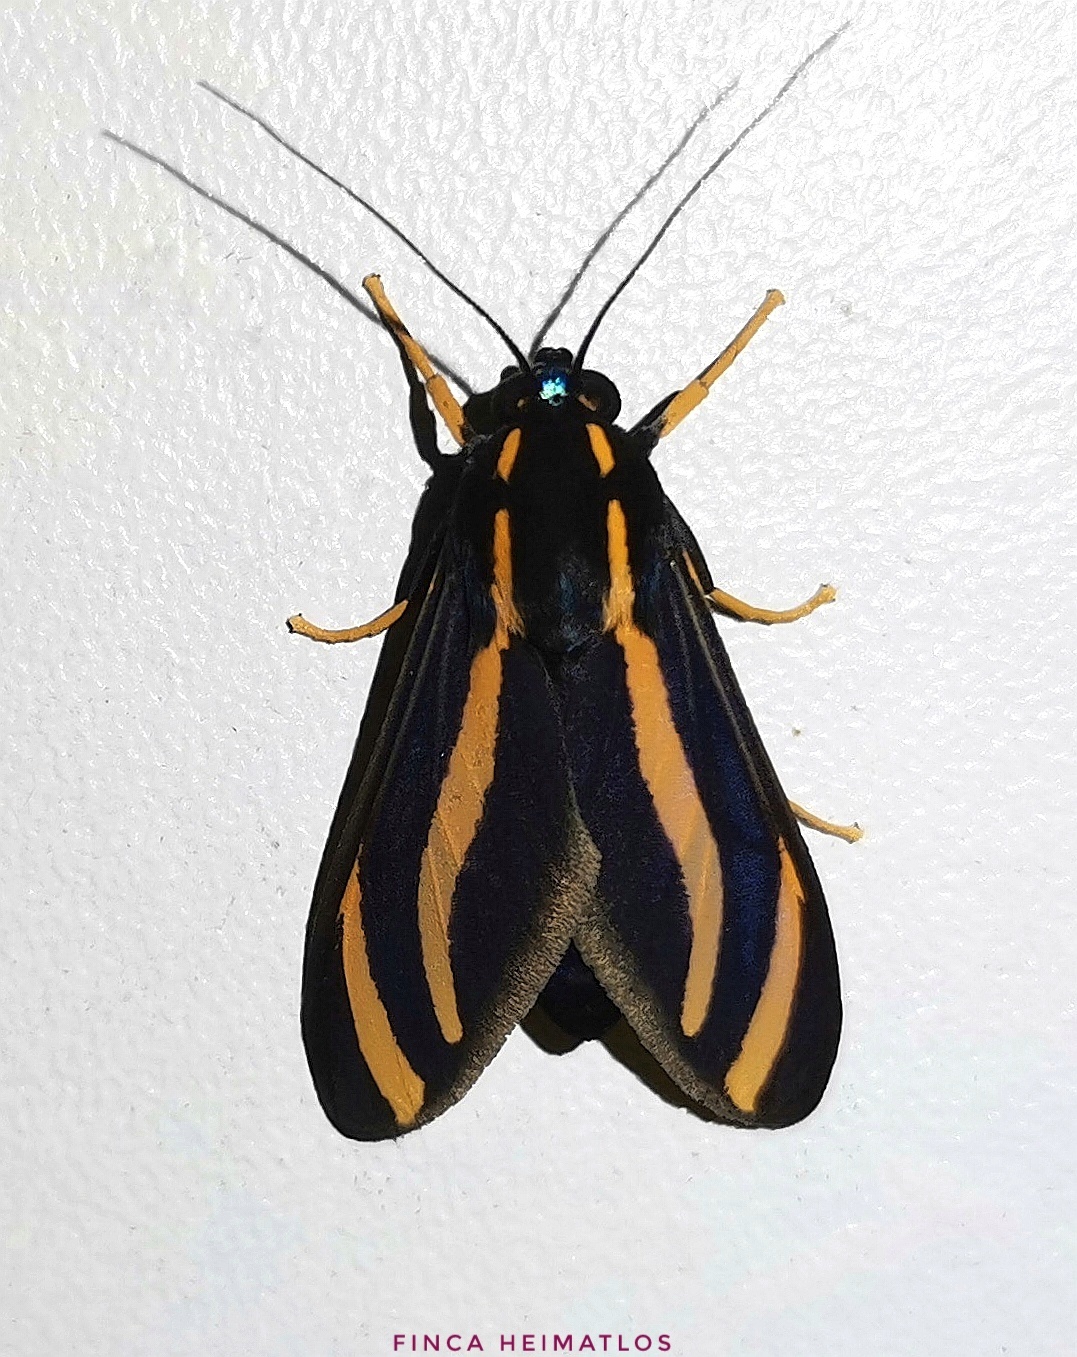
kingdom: Animalia
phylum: Arthropoda
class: Insecta
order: Lepidoptera
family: Erebidae
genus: Ormetica
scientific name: Ormetica packardi
